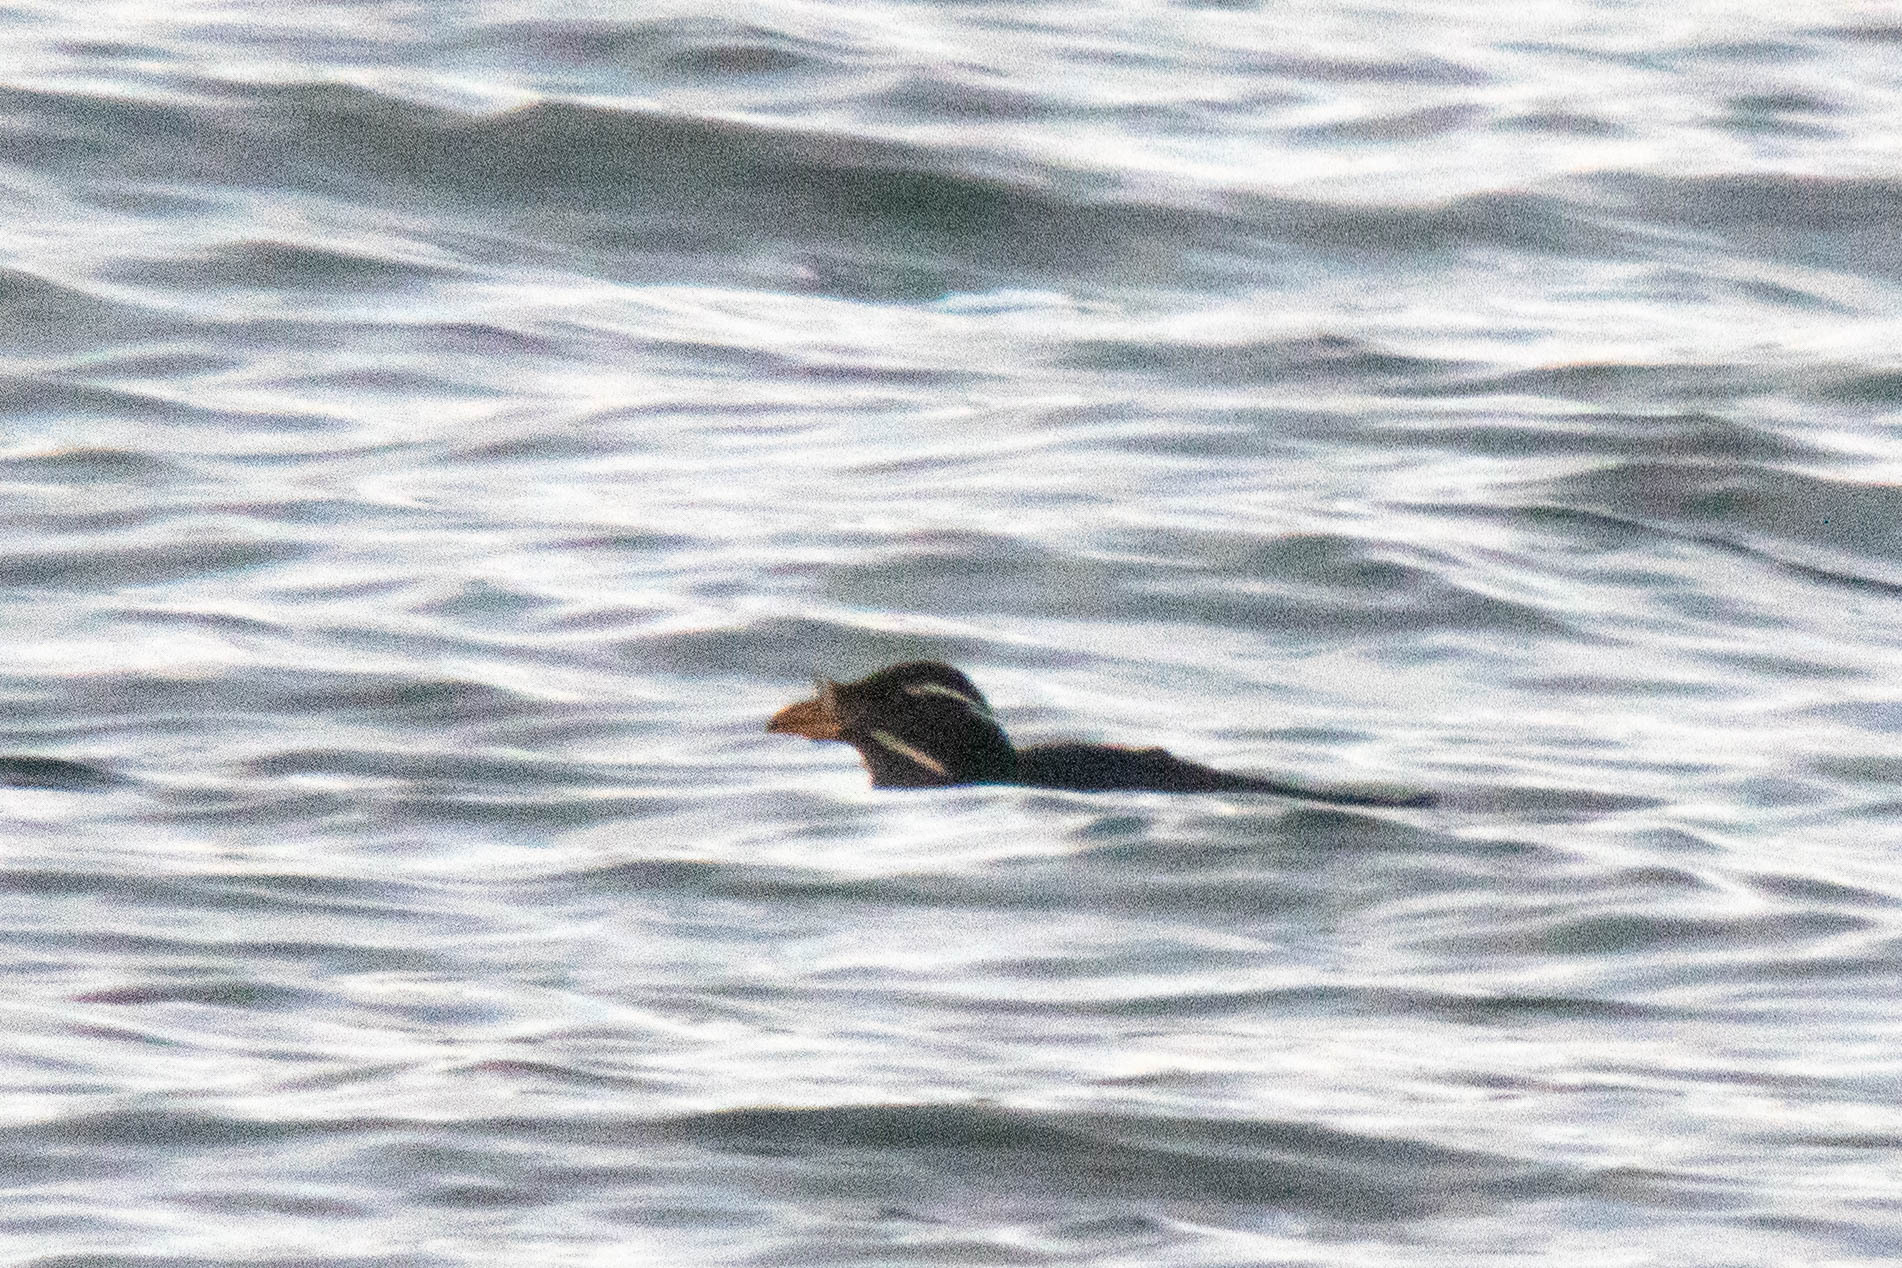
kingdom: Animalia
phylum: Chordata
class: Aves
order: Charadriiformes
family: Alcidae
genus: Cerorhinca
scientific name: Cerorhinca monocerata
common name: Rhinoceros auklet
